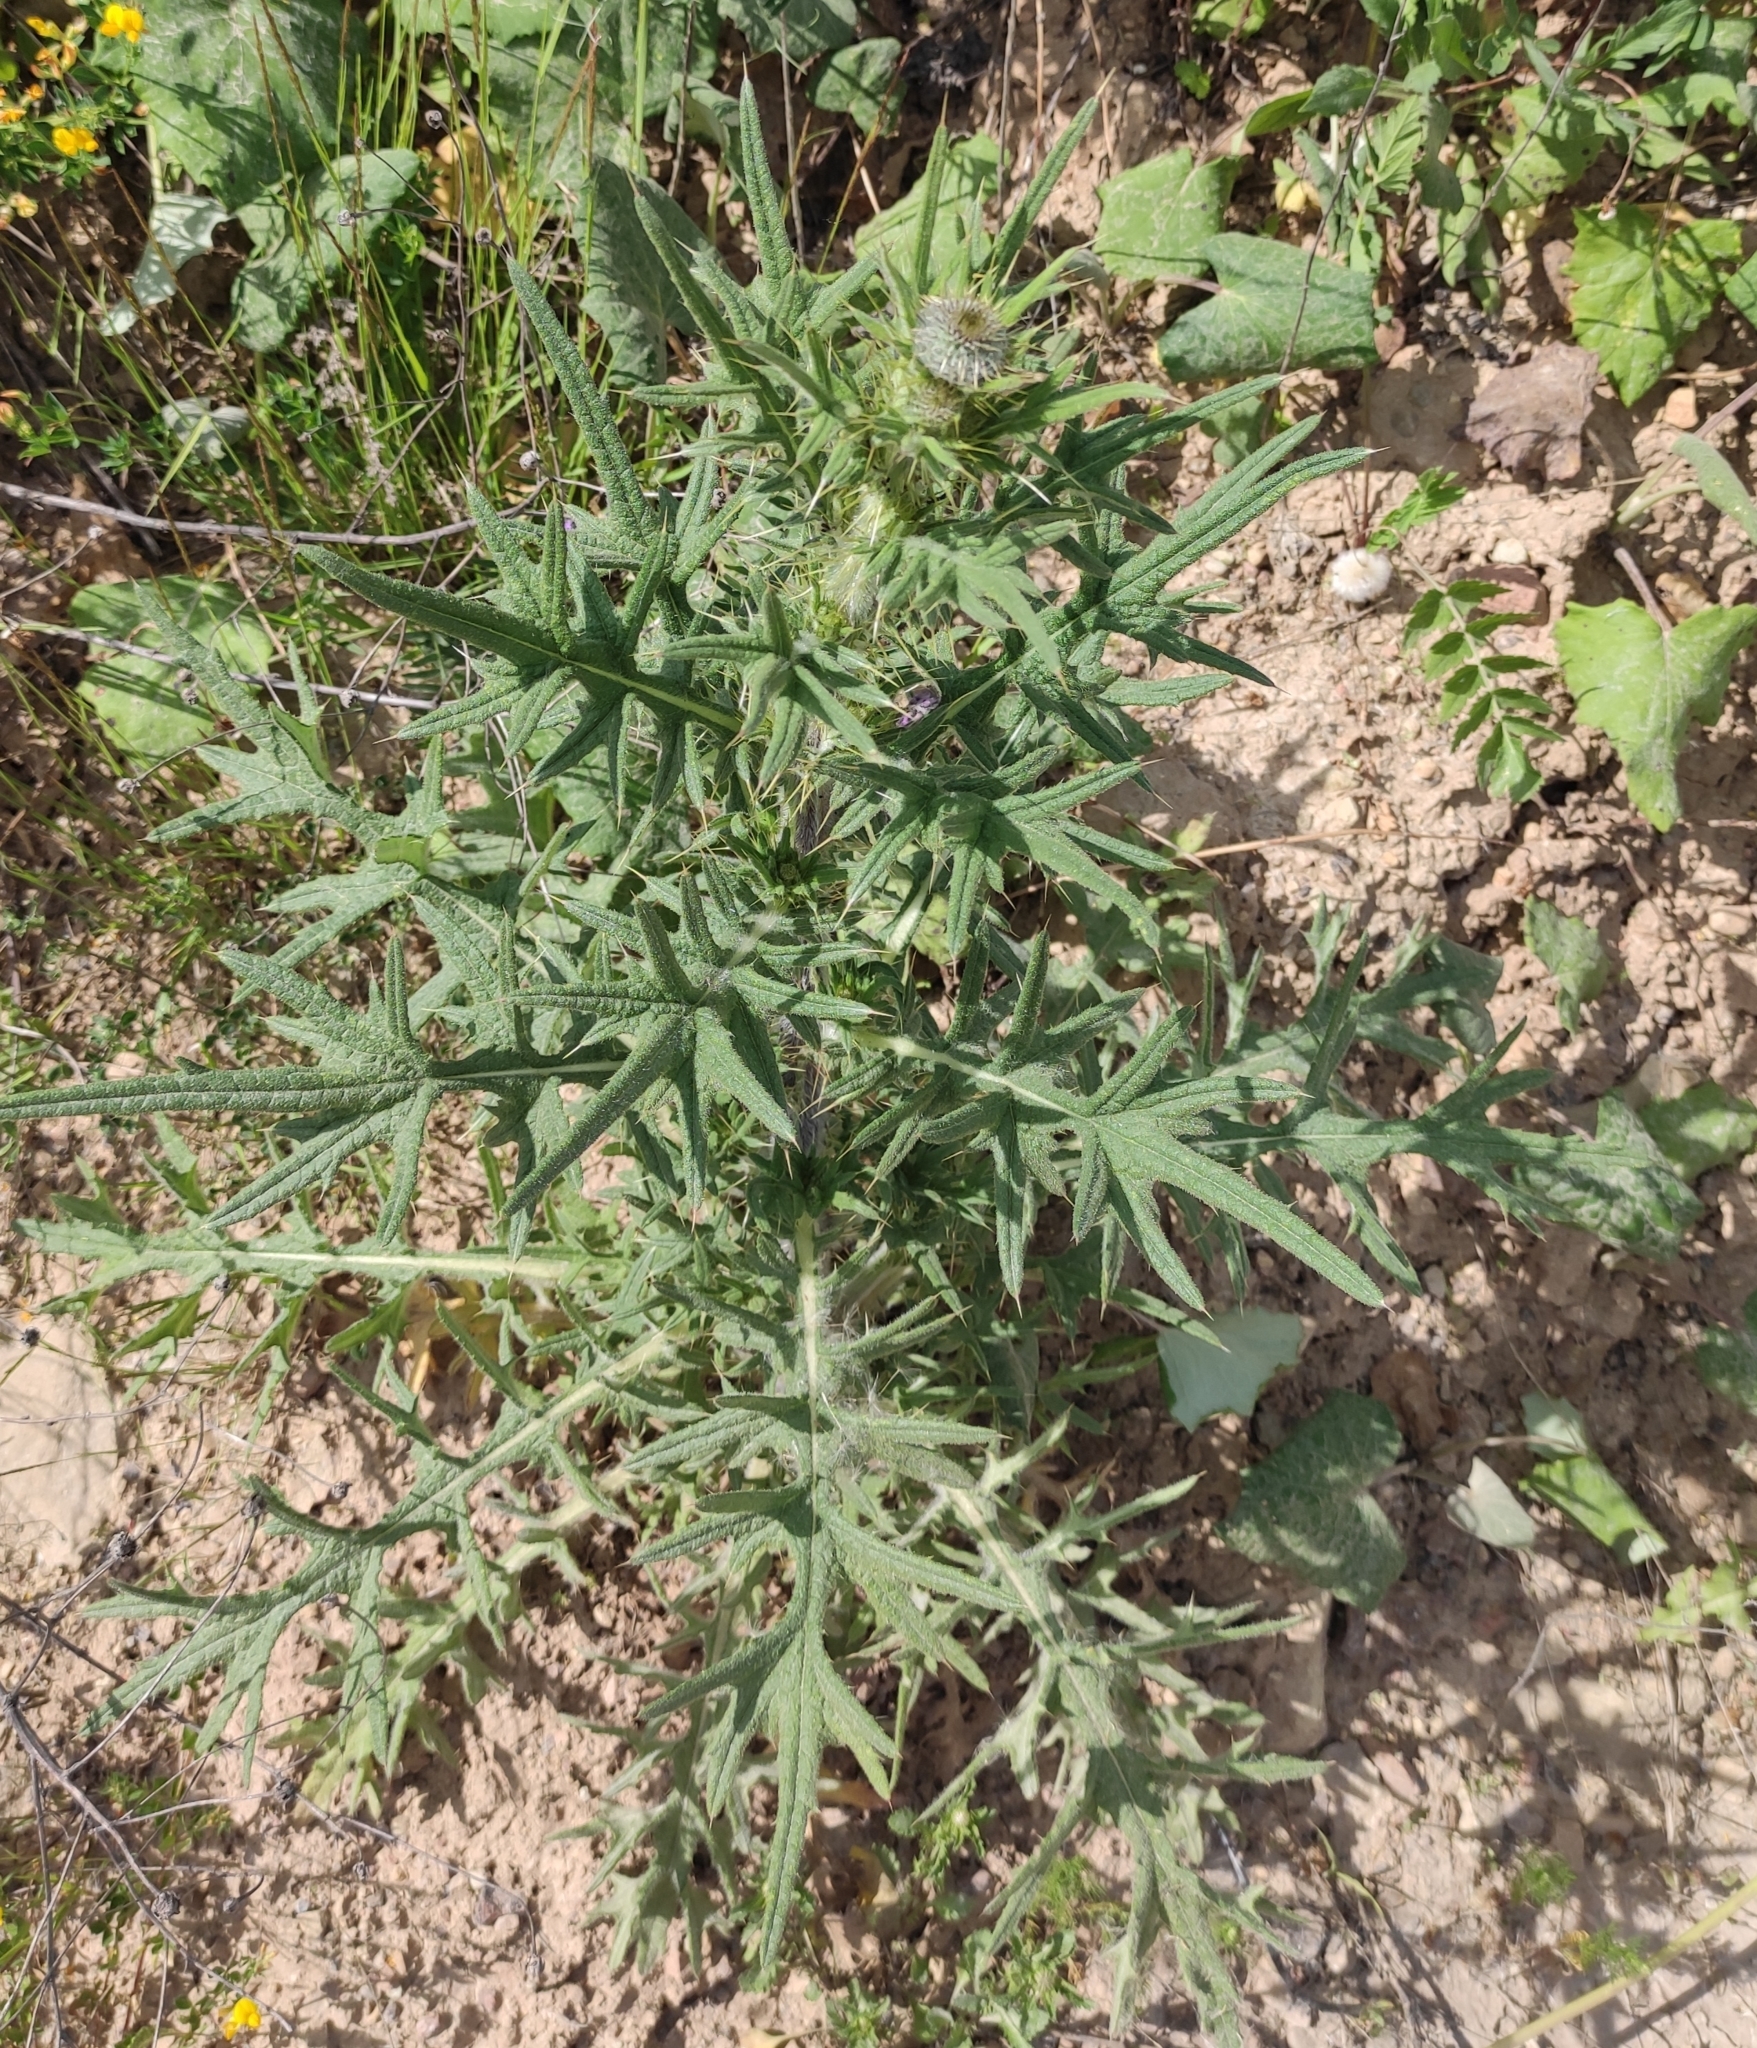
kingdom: Plantae
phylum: Tracheophyta
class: Magnoliopsida
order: Asterales
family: Asteraceae
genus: Cirsium
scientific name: Cirsium vulgare
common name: Bull thistle
